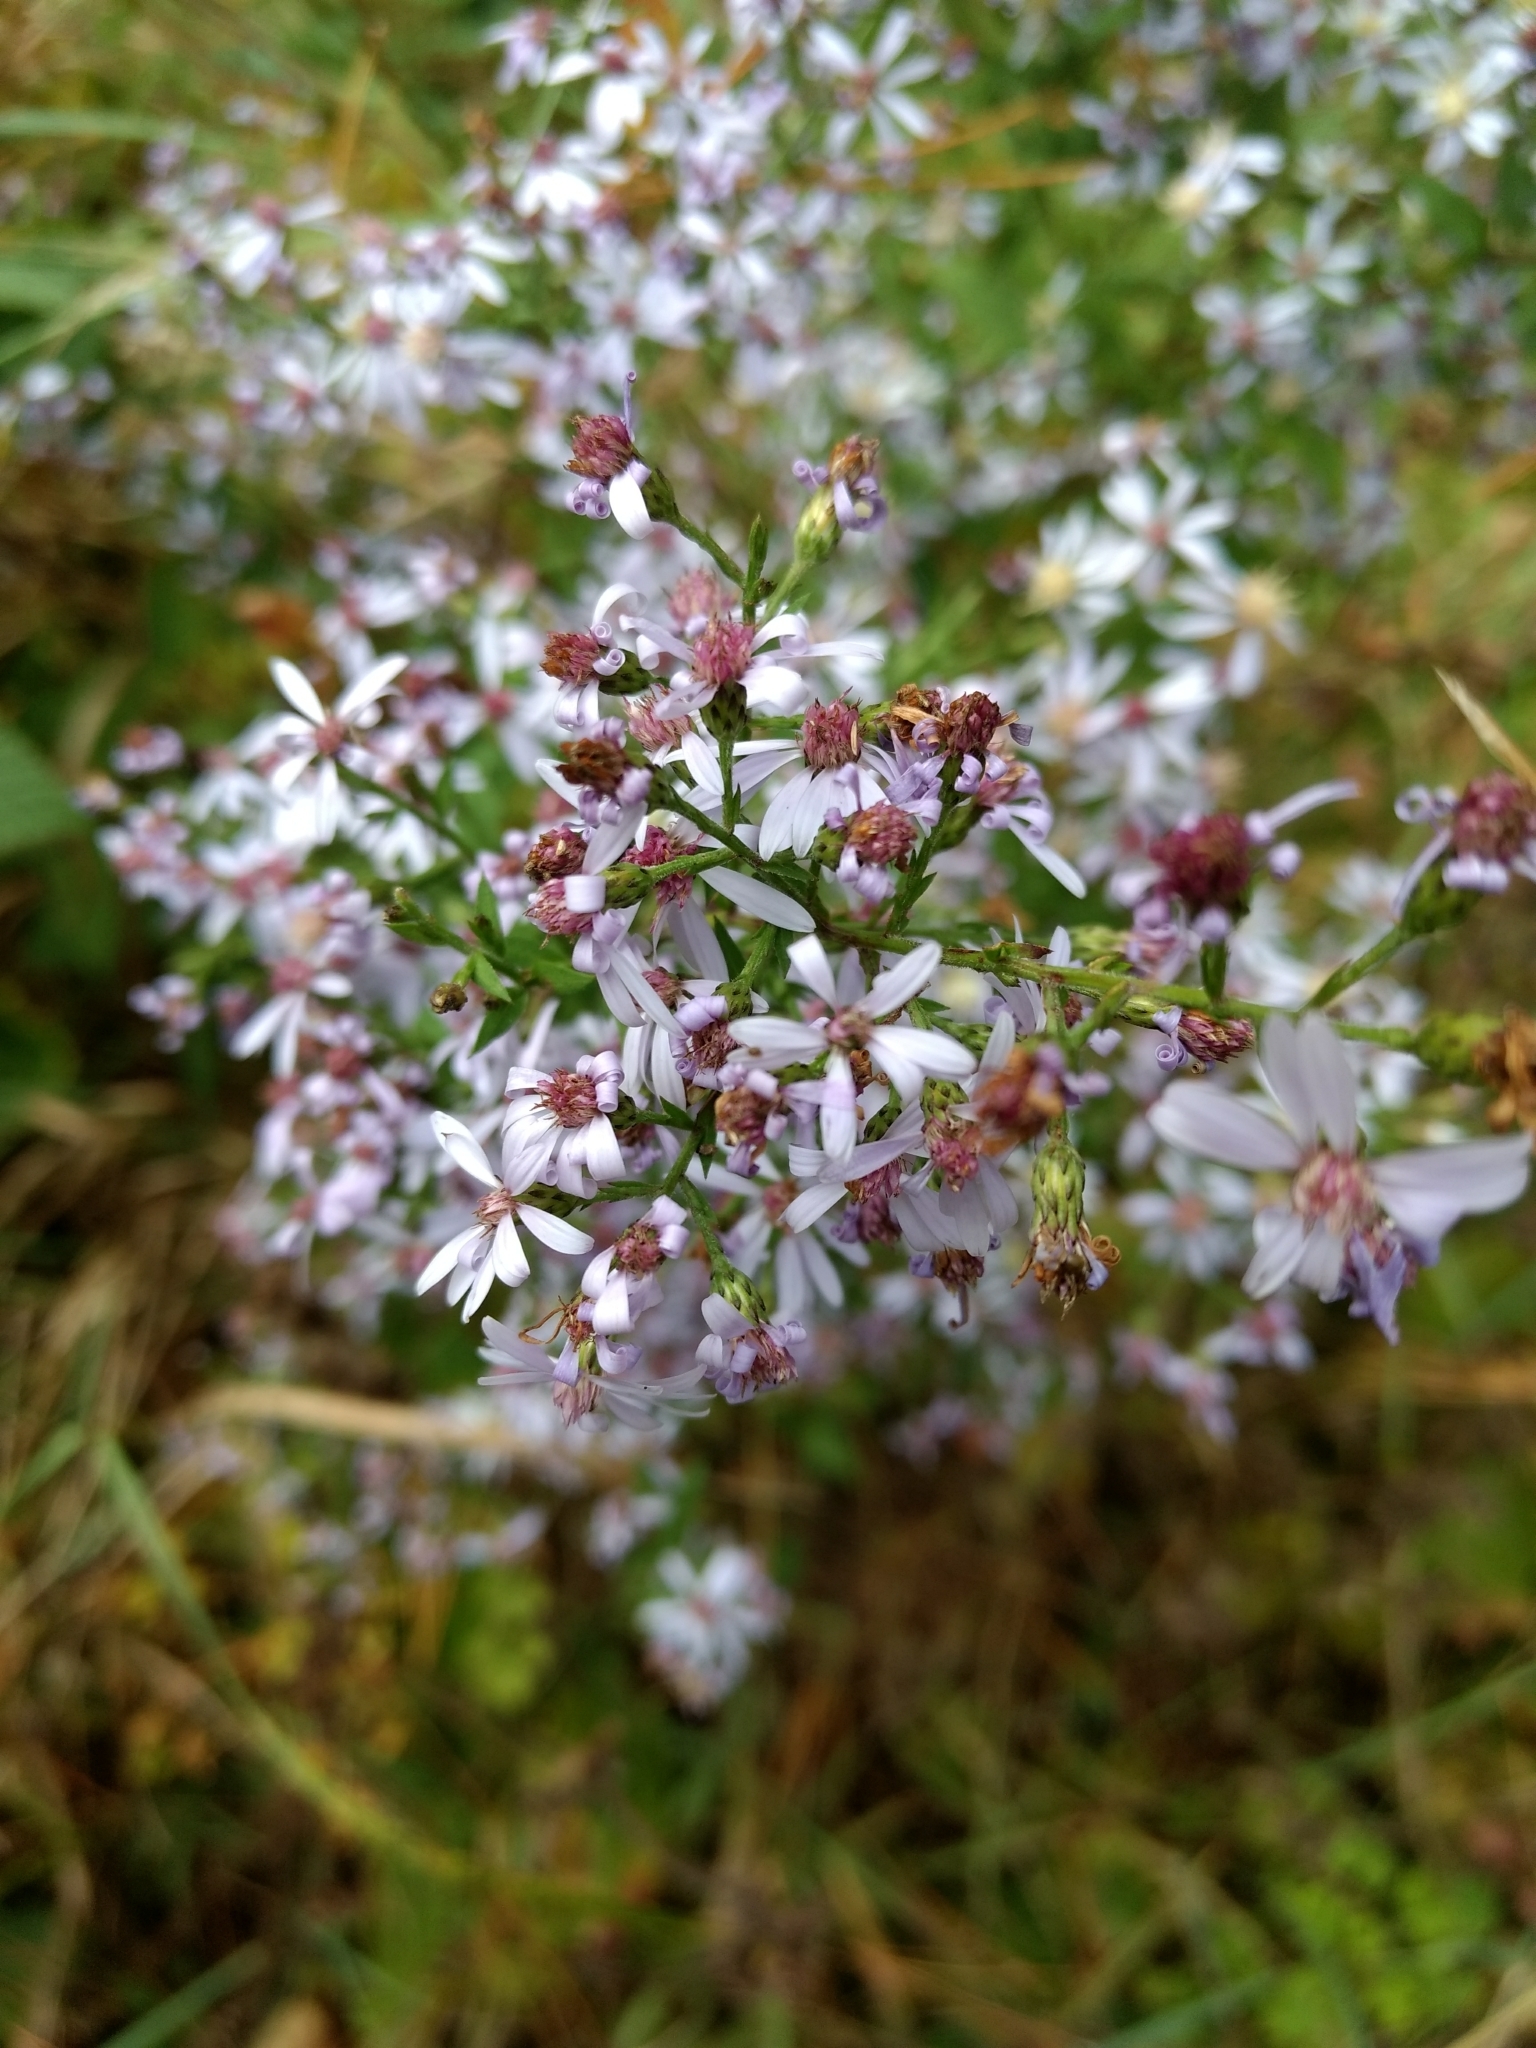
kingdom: Plantae
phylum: Tracheophyta
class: Magnoliopsida
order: Asterales
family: Asteraceae
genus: Symphyotrichum
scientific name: Symphyotrichum cordifolium
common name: Beeweed
